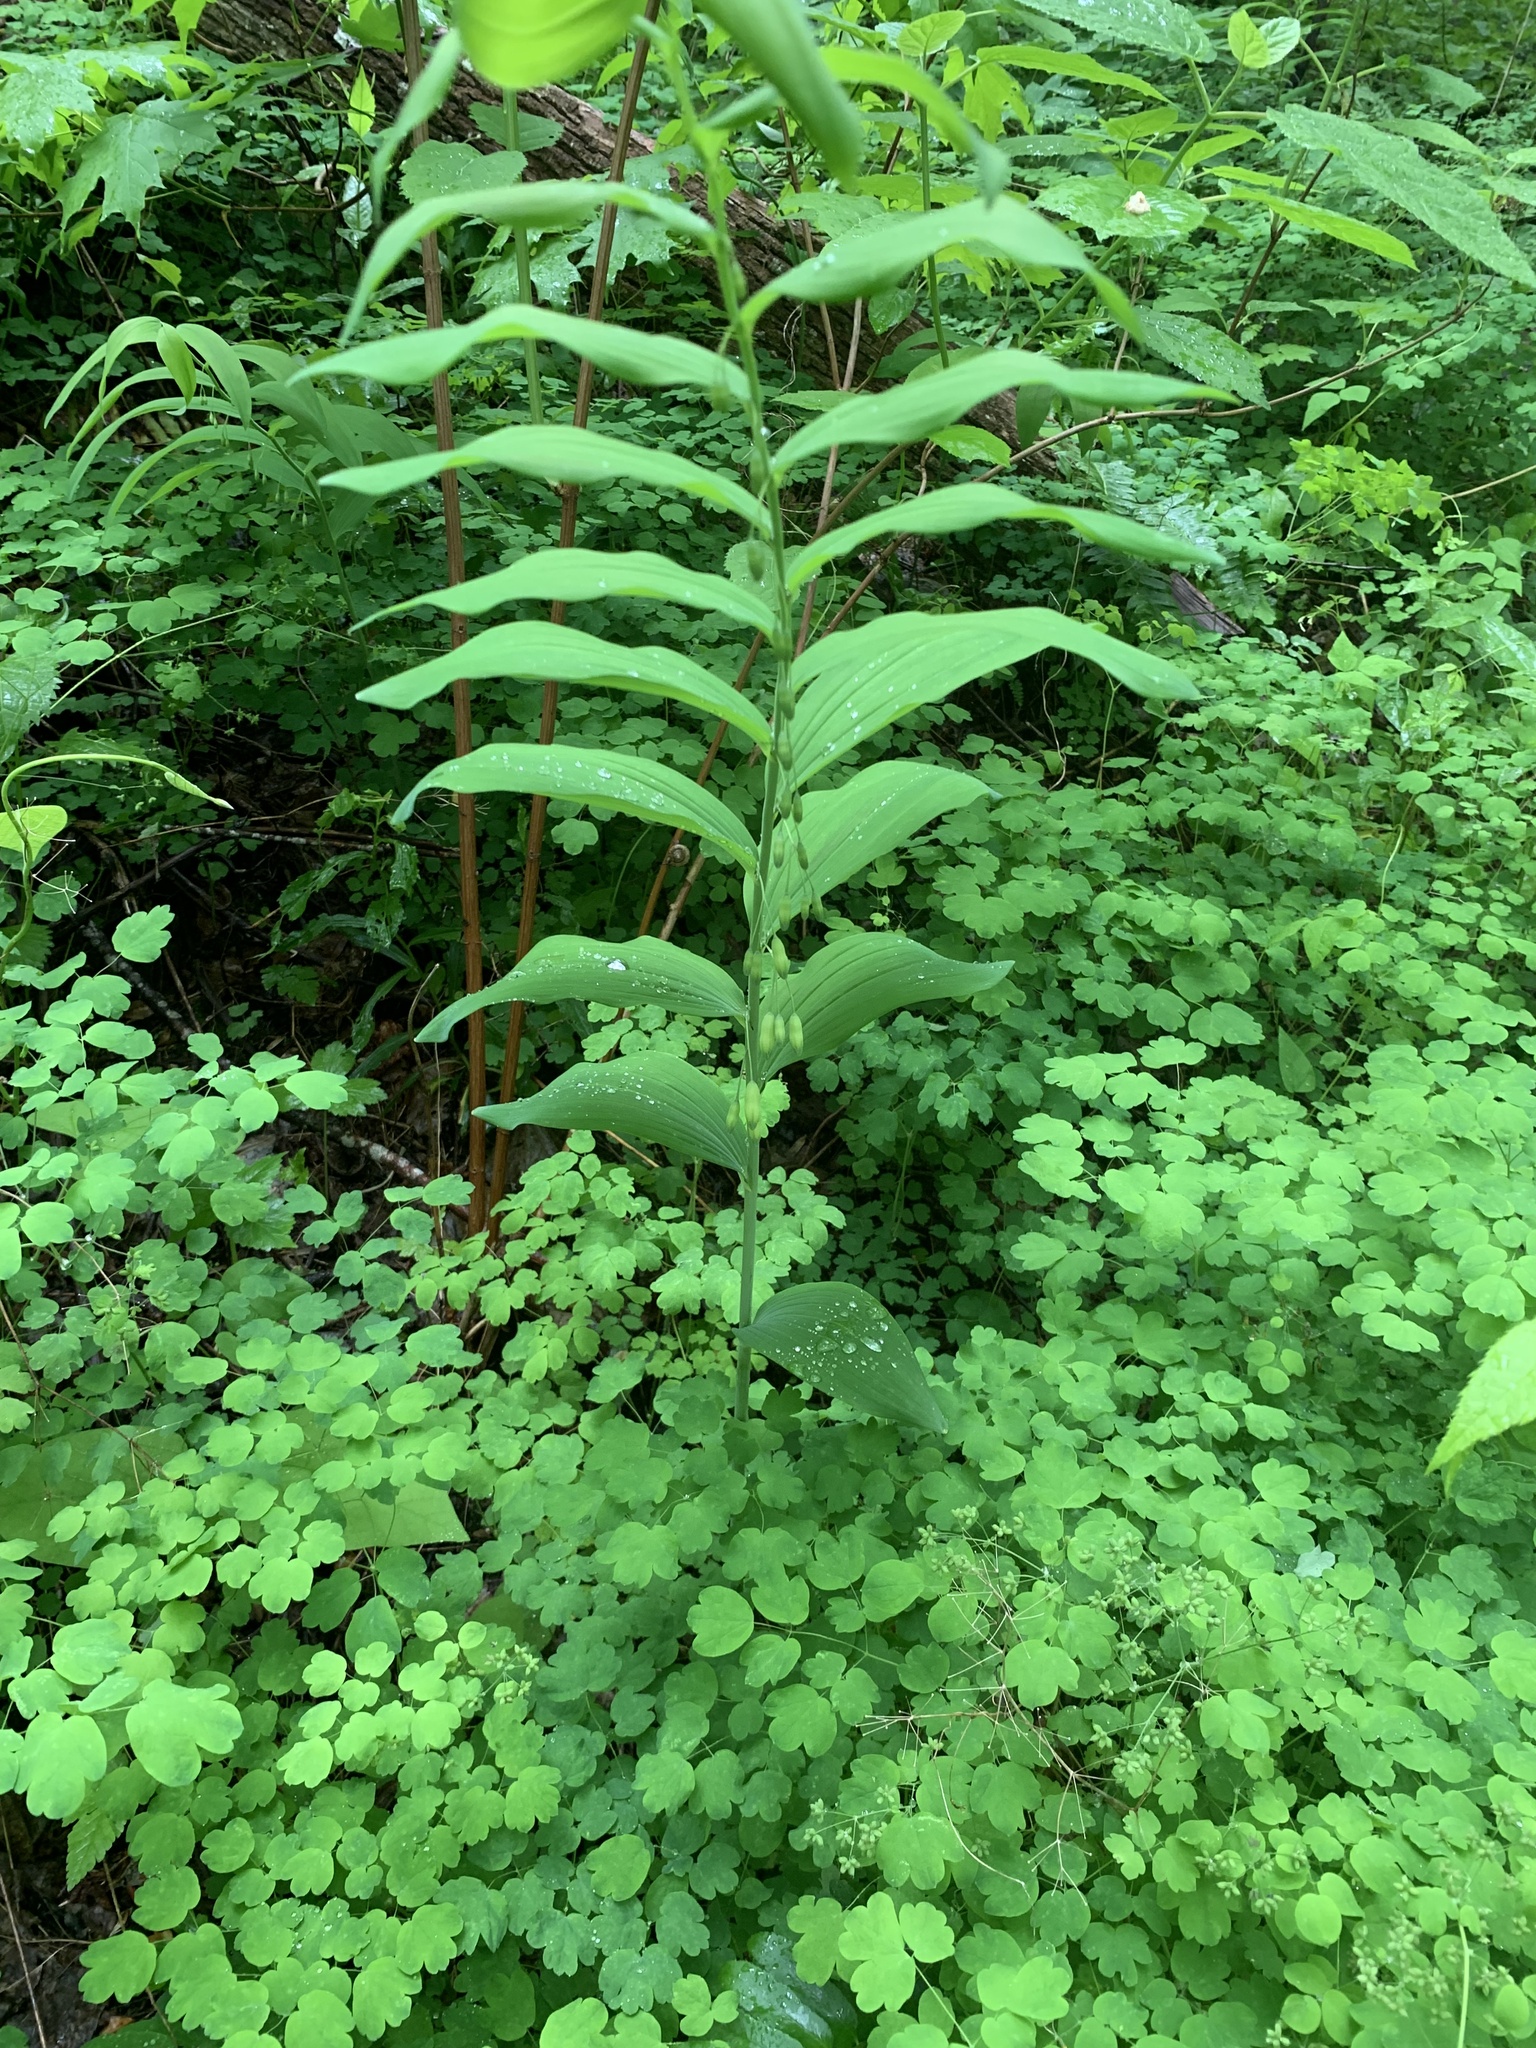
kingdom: Plantae
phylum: Tracheophyta
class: Liliopsida
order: Asparagales
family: Asparagaceae
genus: Polygonatum
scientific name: Polygonatum biflorum
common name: American solomon's-seal
